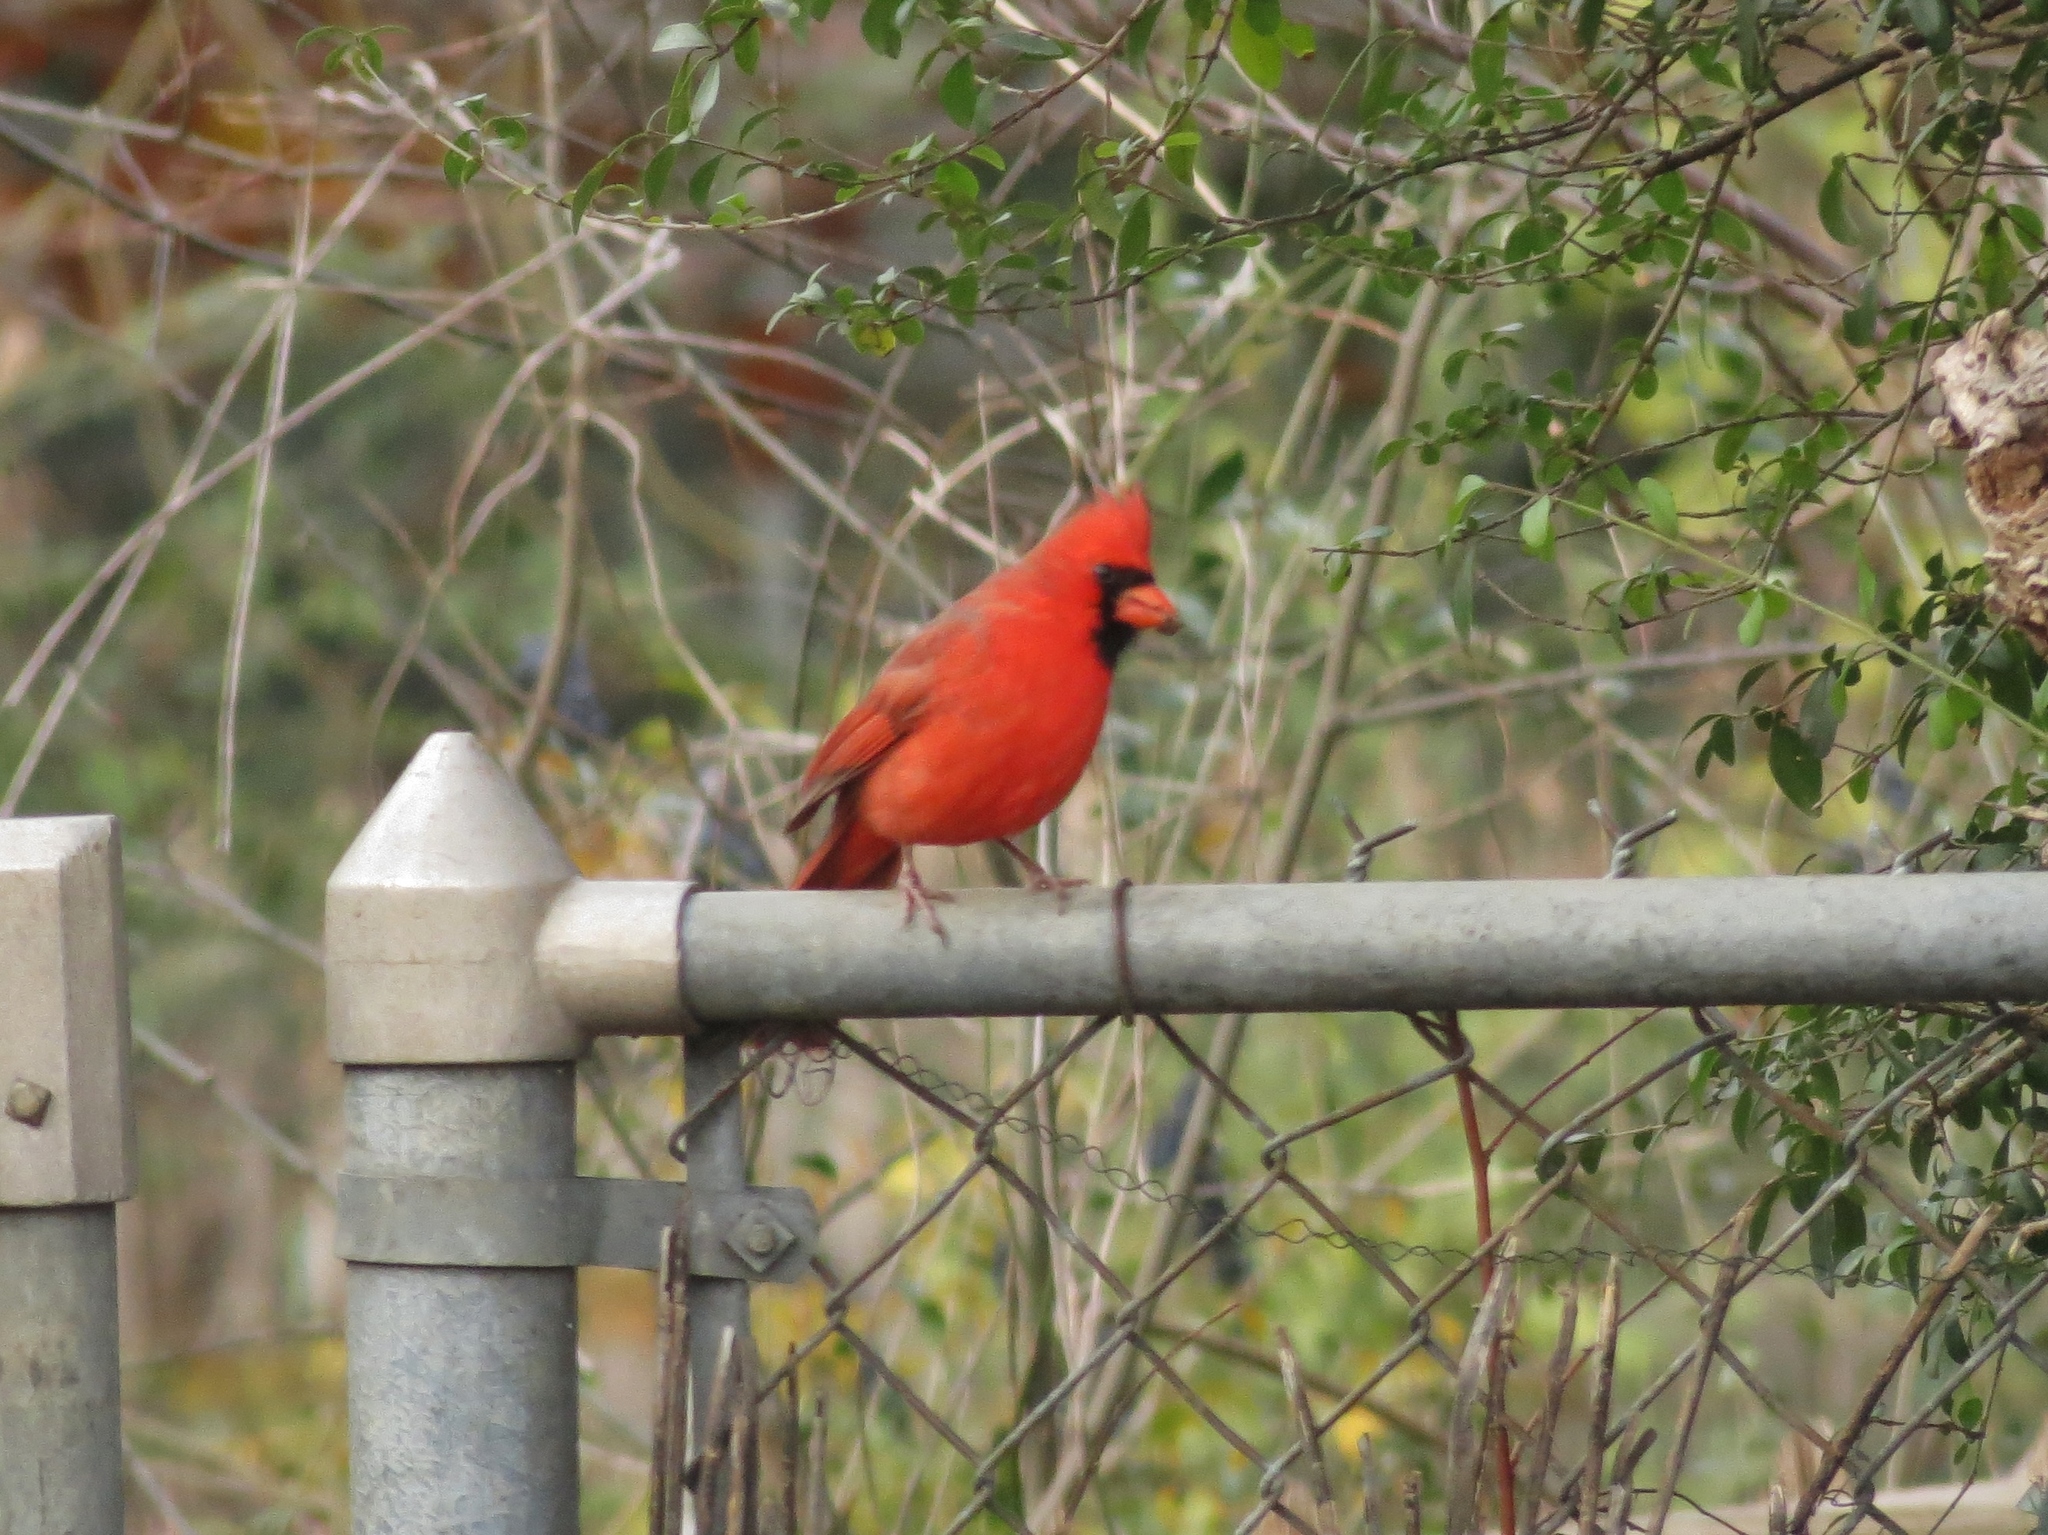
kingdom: Animalia
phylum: Chordata
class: Aves
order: Passeriformes
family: Cardinalidae
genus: Cardinalis
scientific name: Cardinalis cardinalis
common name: Northern cardinal
